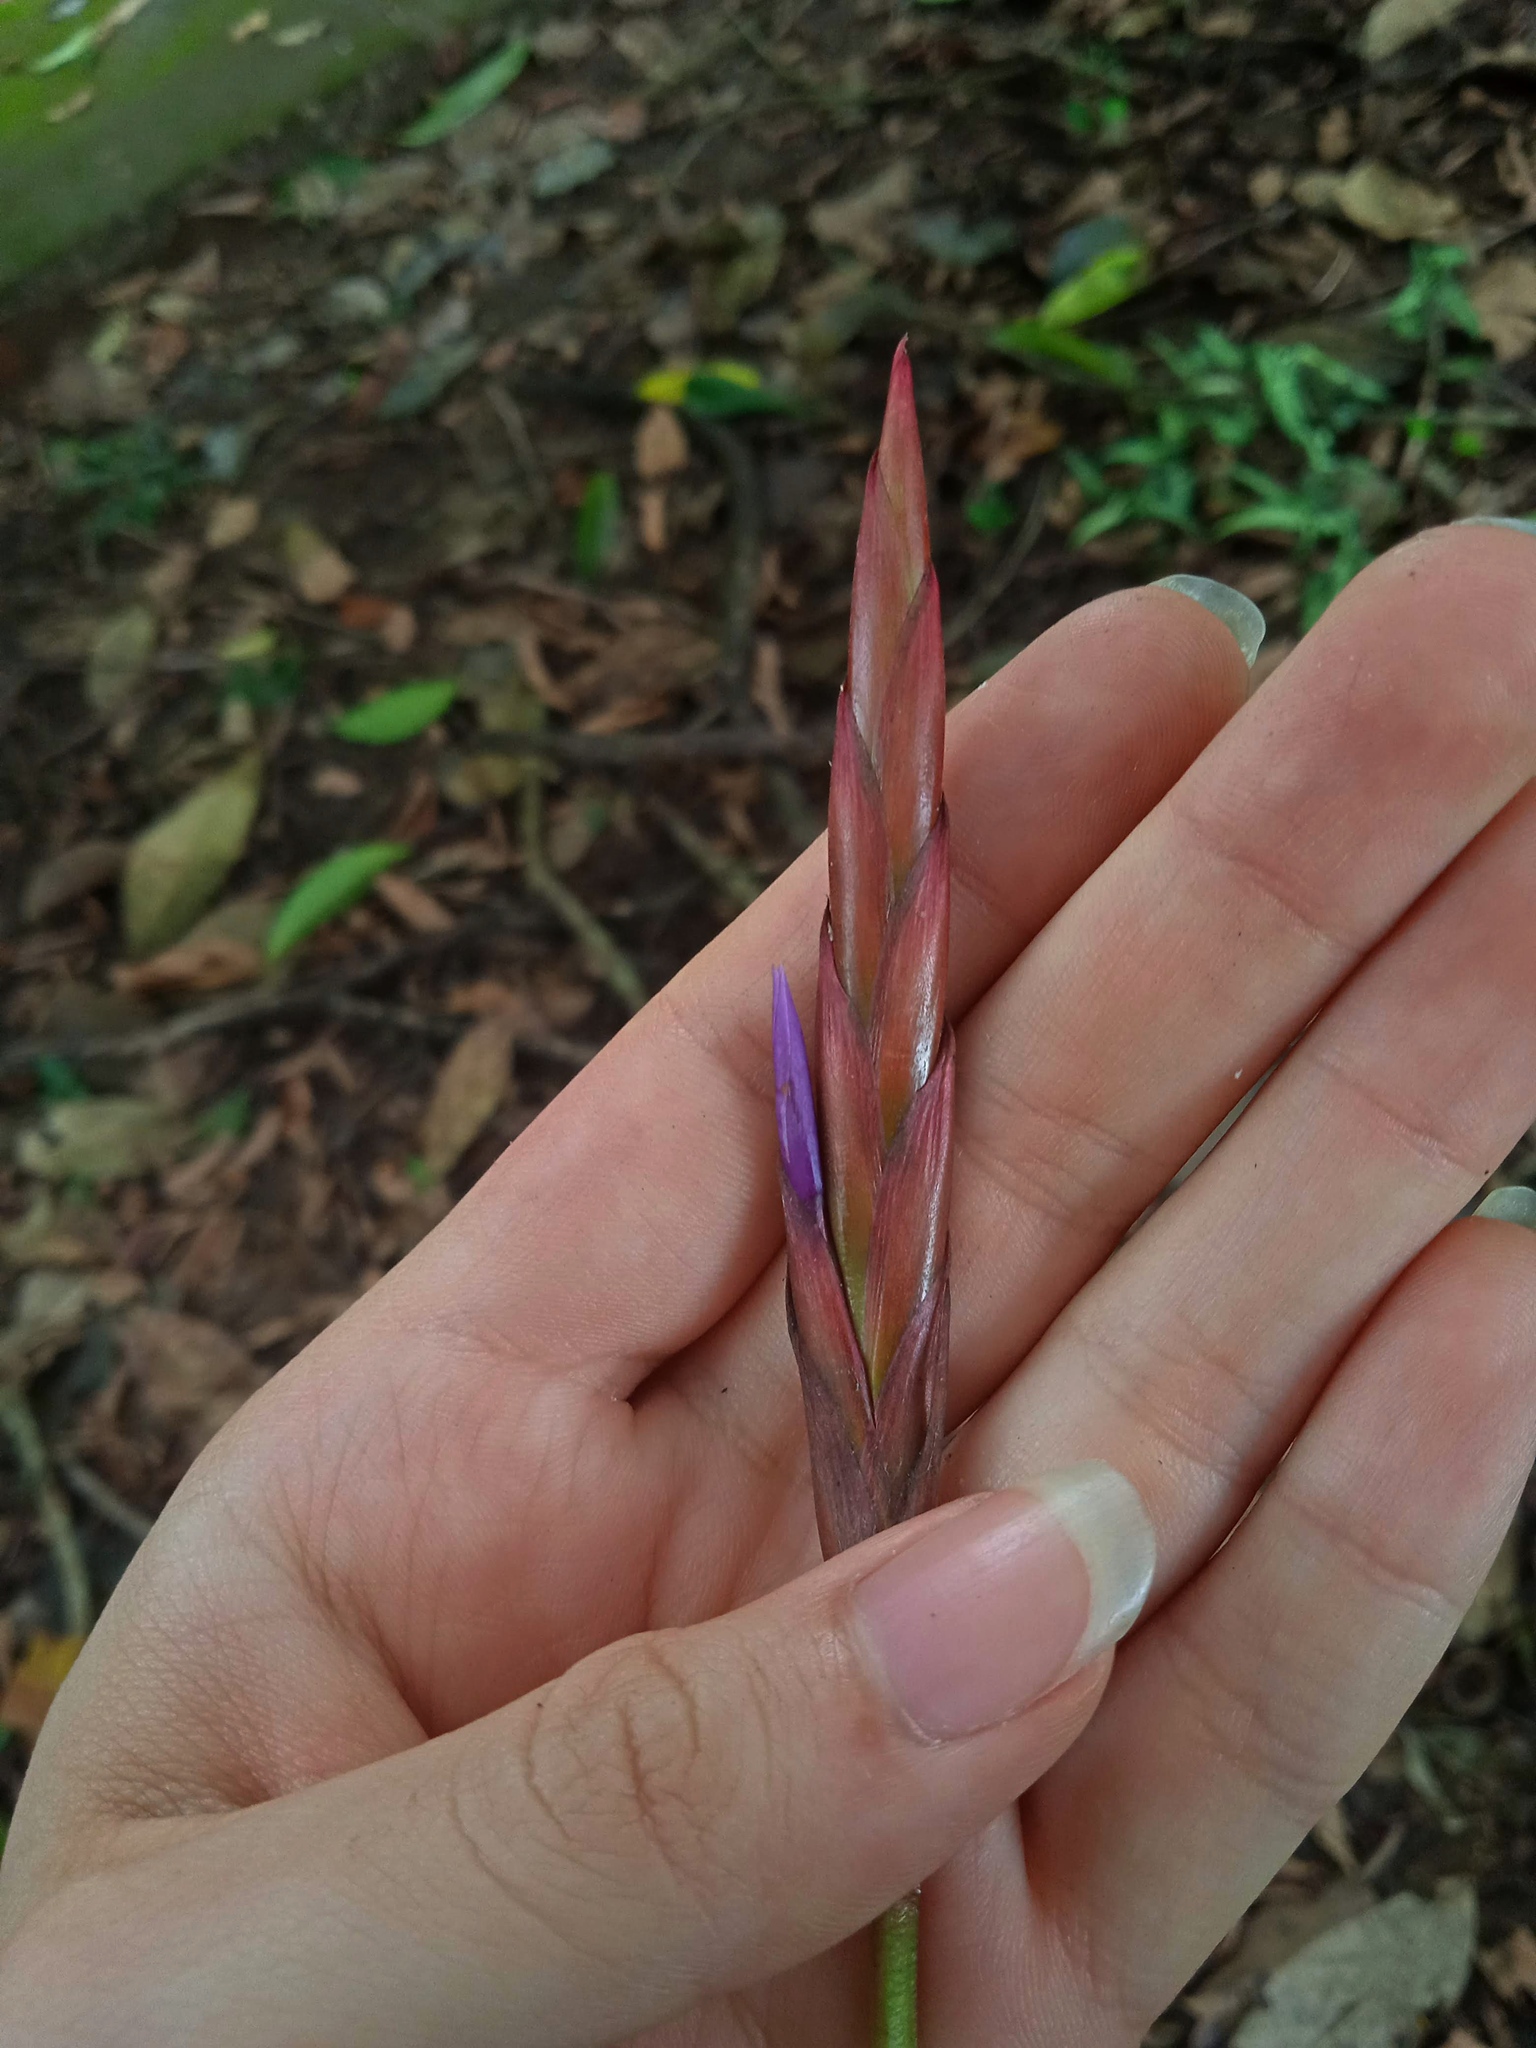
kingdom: Plantae
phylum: Tracheophyta
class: Liliopsida
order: Poales
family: Bromeliaceae
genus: Tillandsia
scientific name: Tillandsia balbisiana
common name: Northern needleleaf
